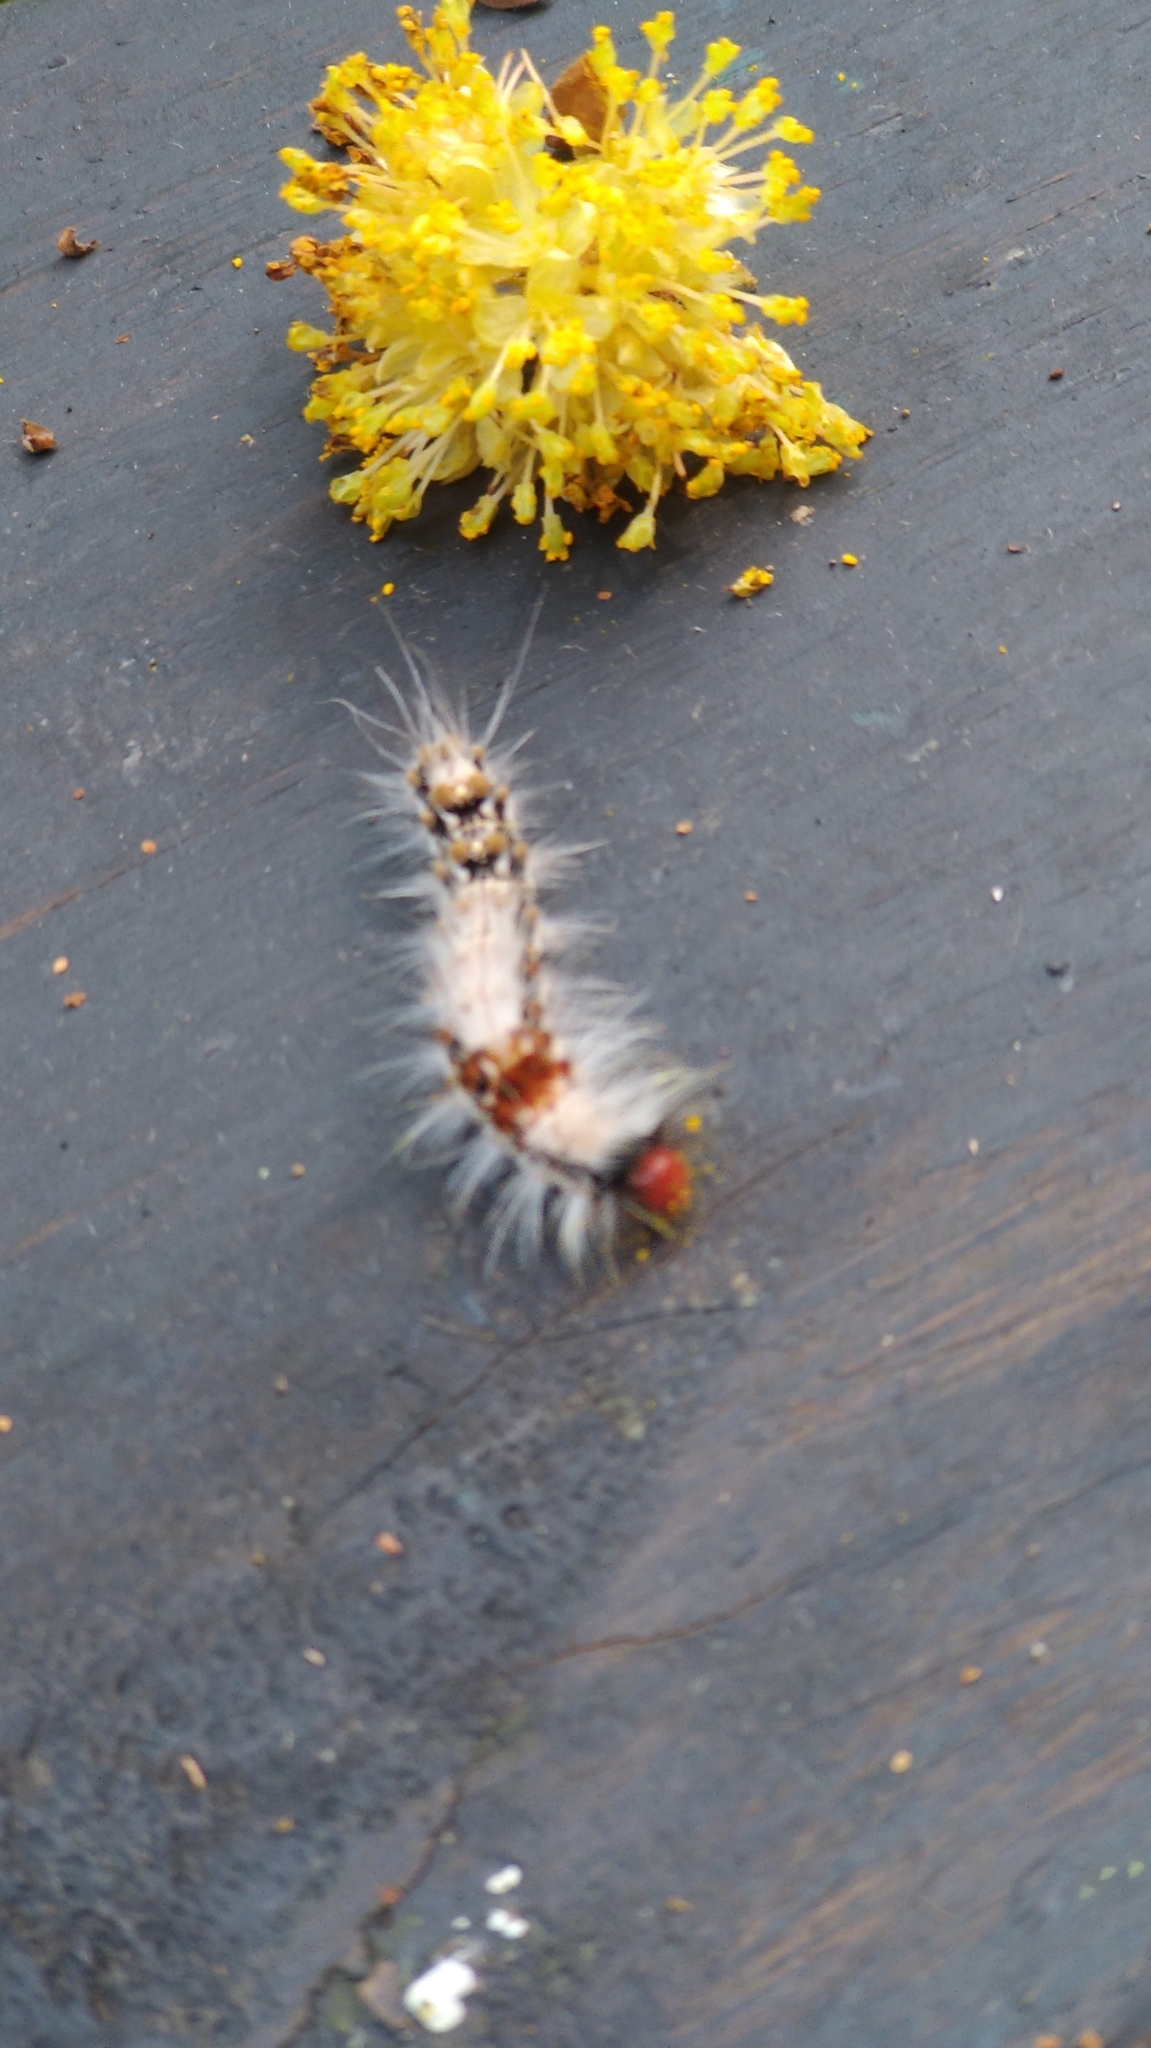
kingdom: Animalia
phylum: Arthropoda
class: Insecta
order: Lepidoptera
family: Erebidae
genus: Euproctis
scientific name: Euproctis baibarana
